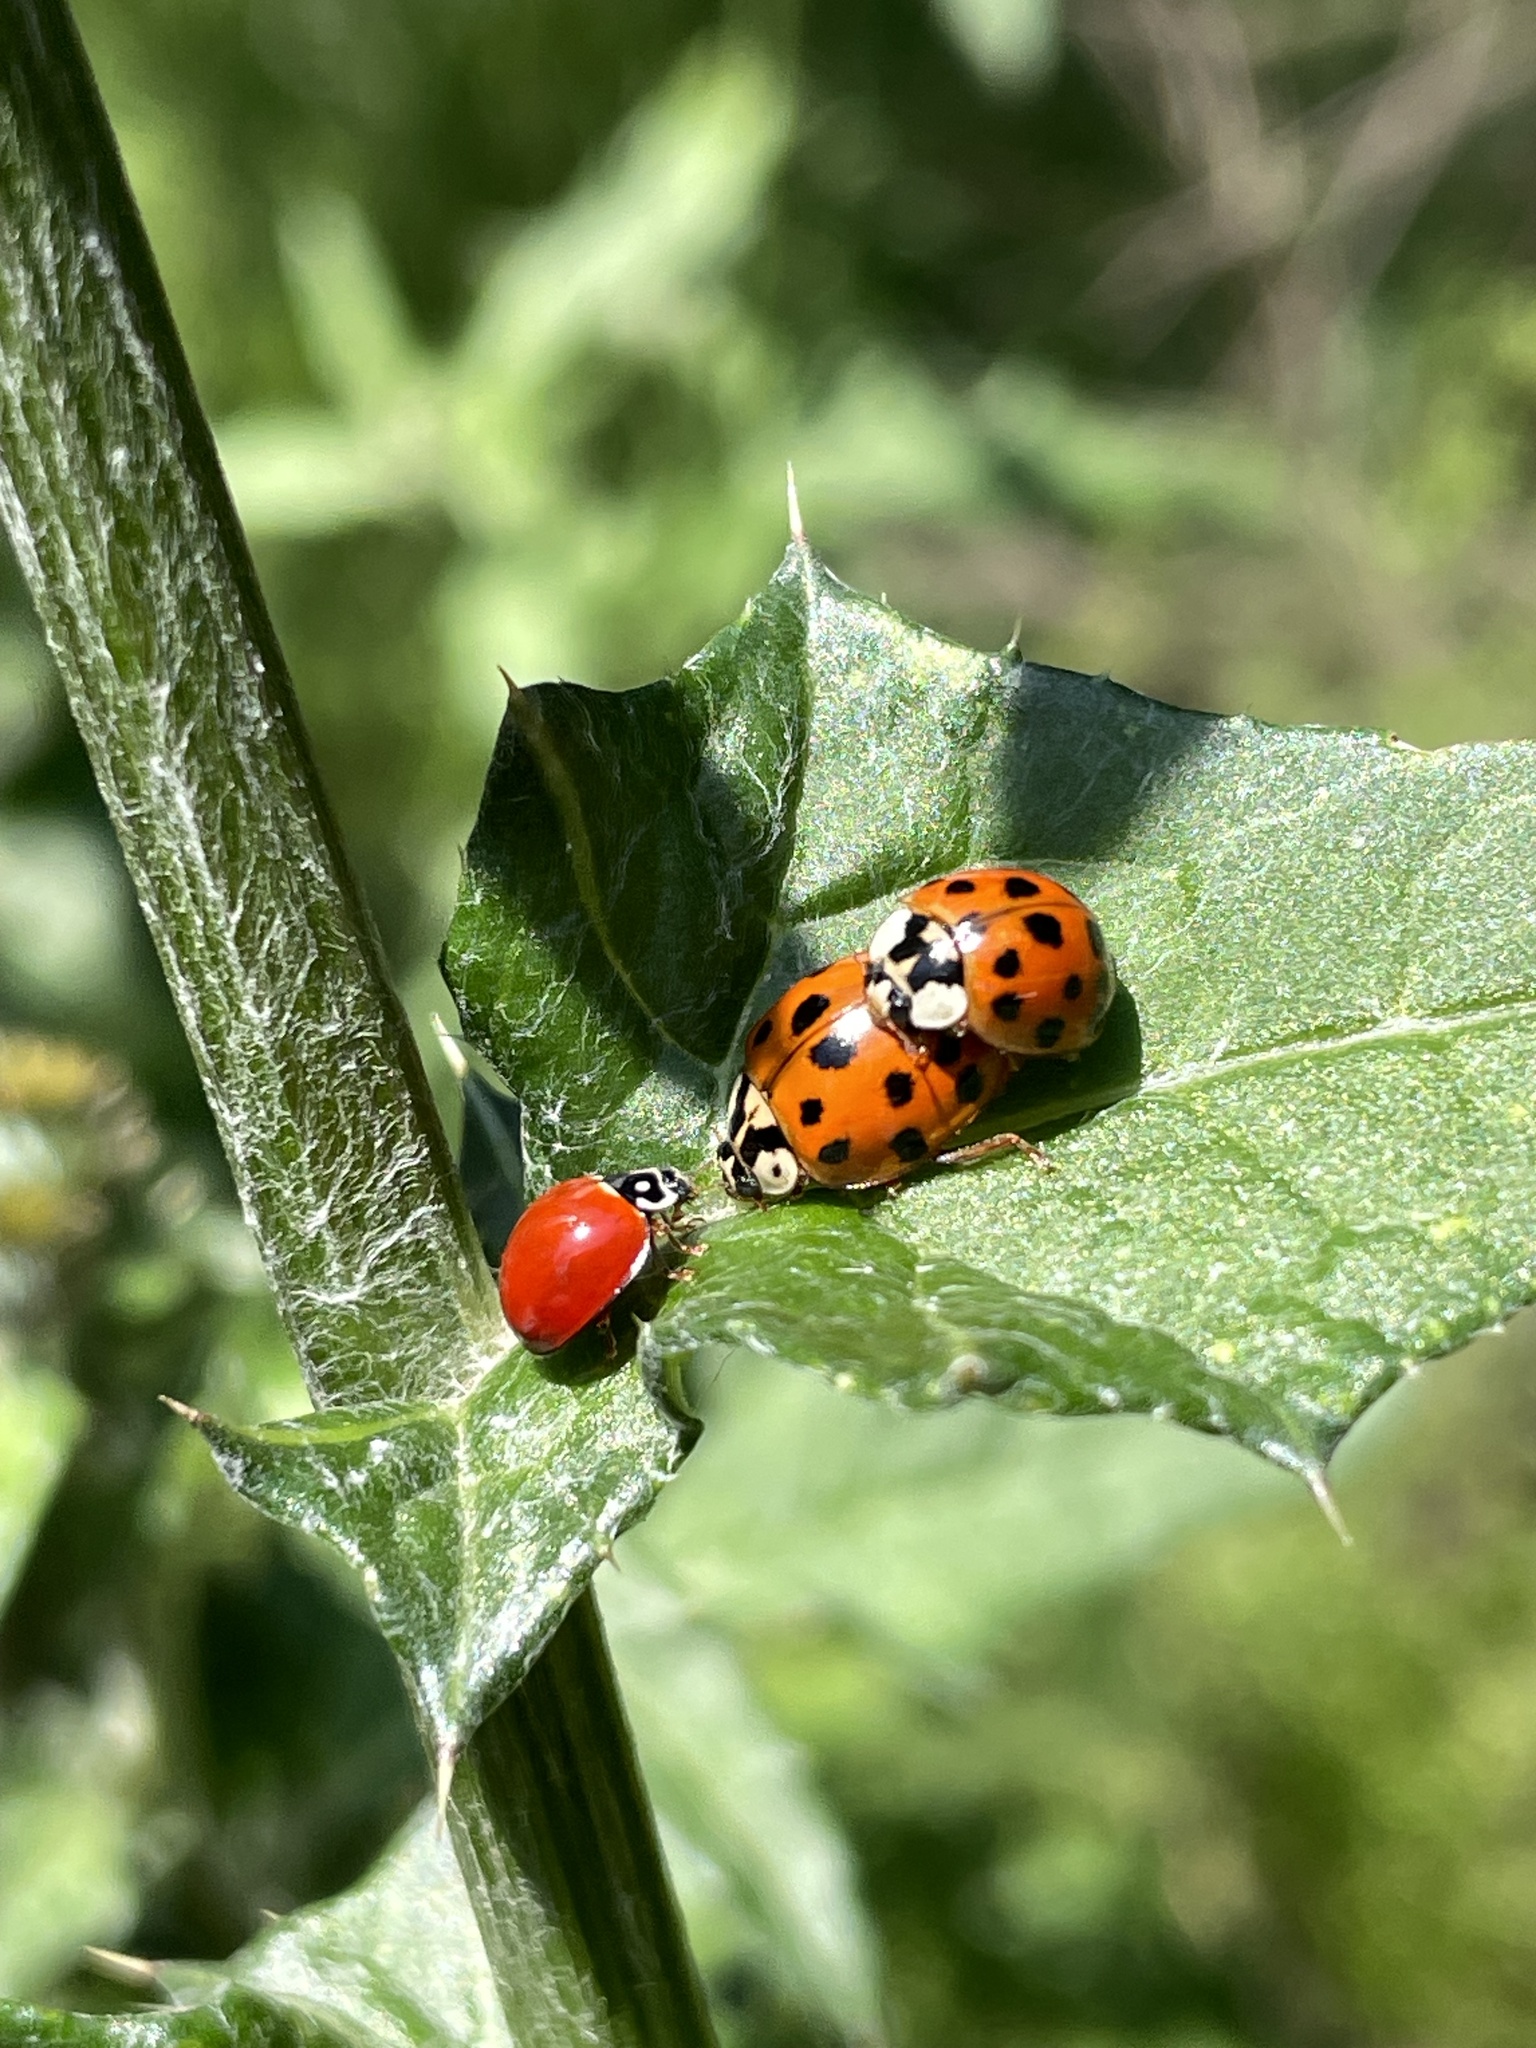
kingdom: Animalia
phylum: Arthropoda
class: Insecta
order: Coleoptera
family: Coccinellidae
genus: Harmonia
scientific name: Harmonia axyridis
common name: Harlequin ladybird
